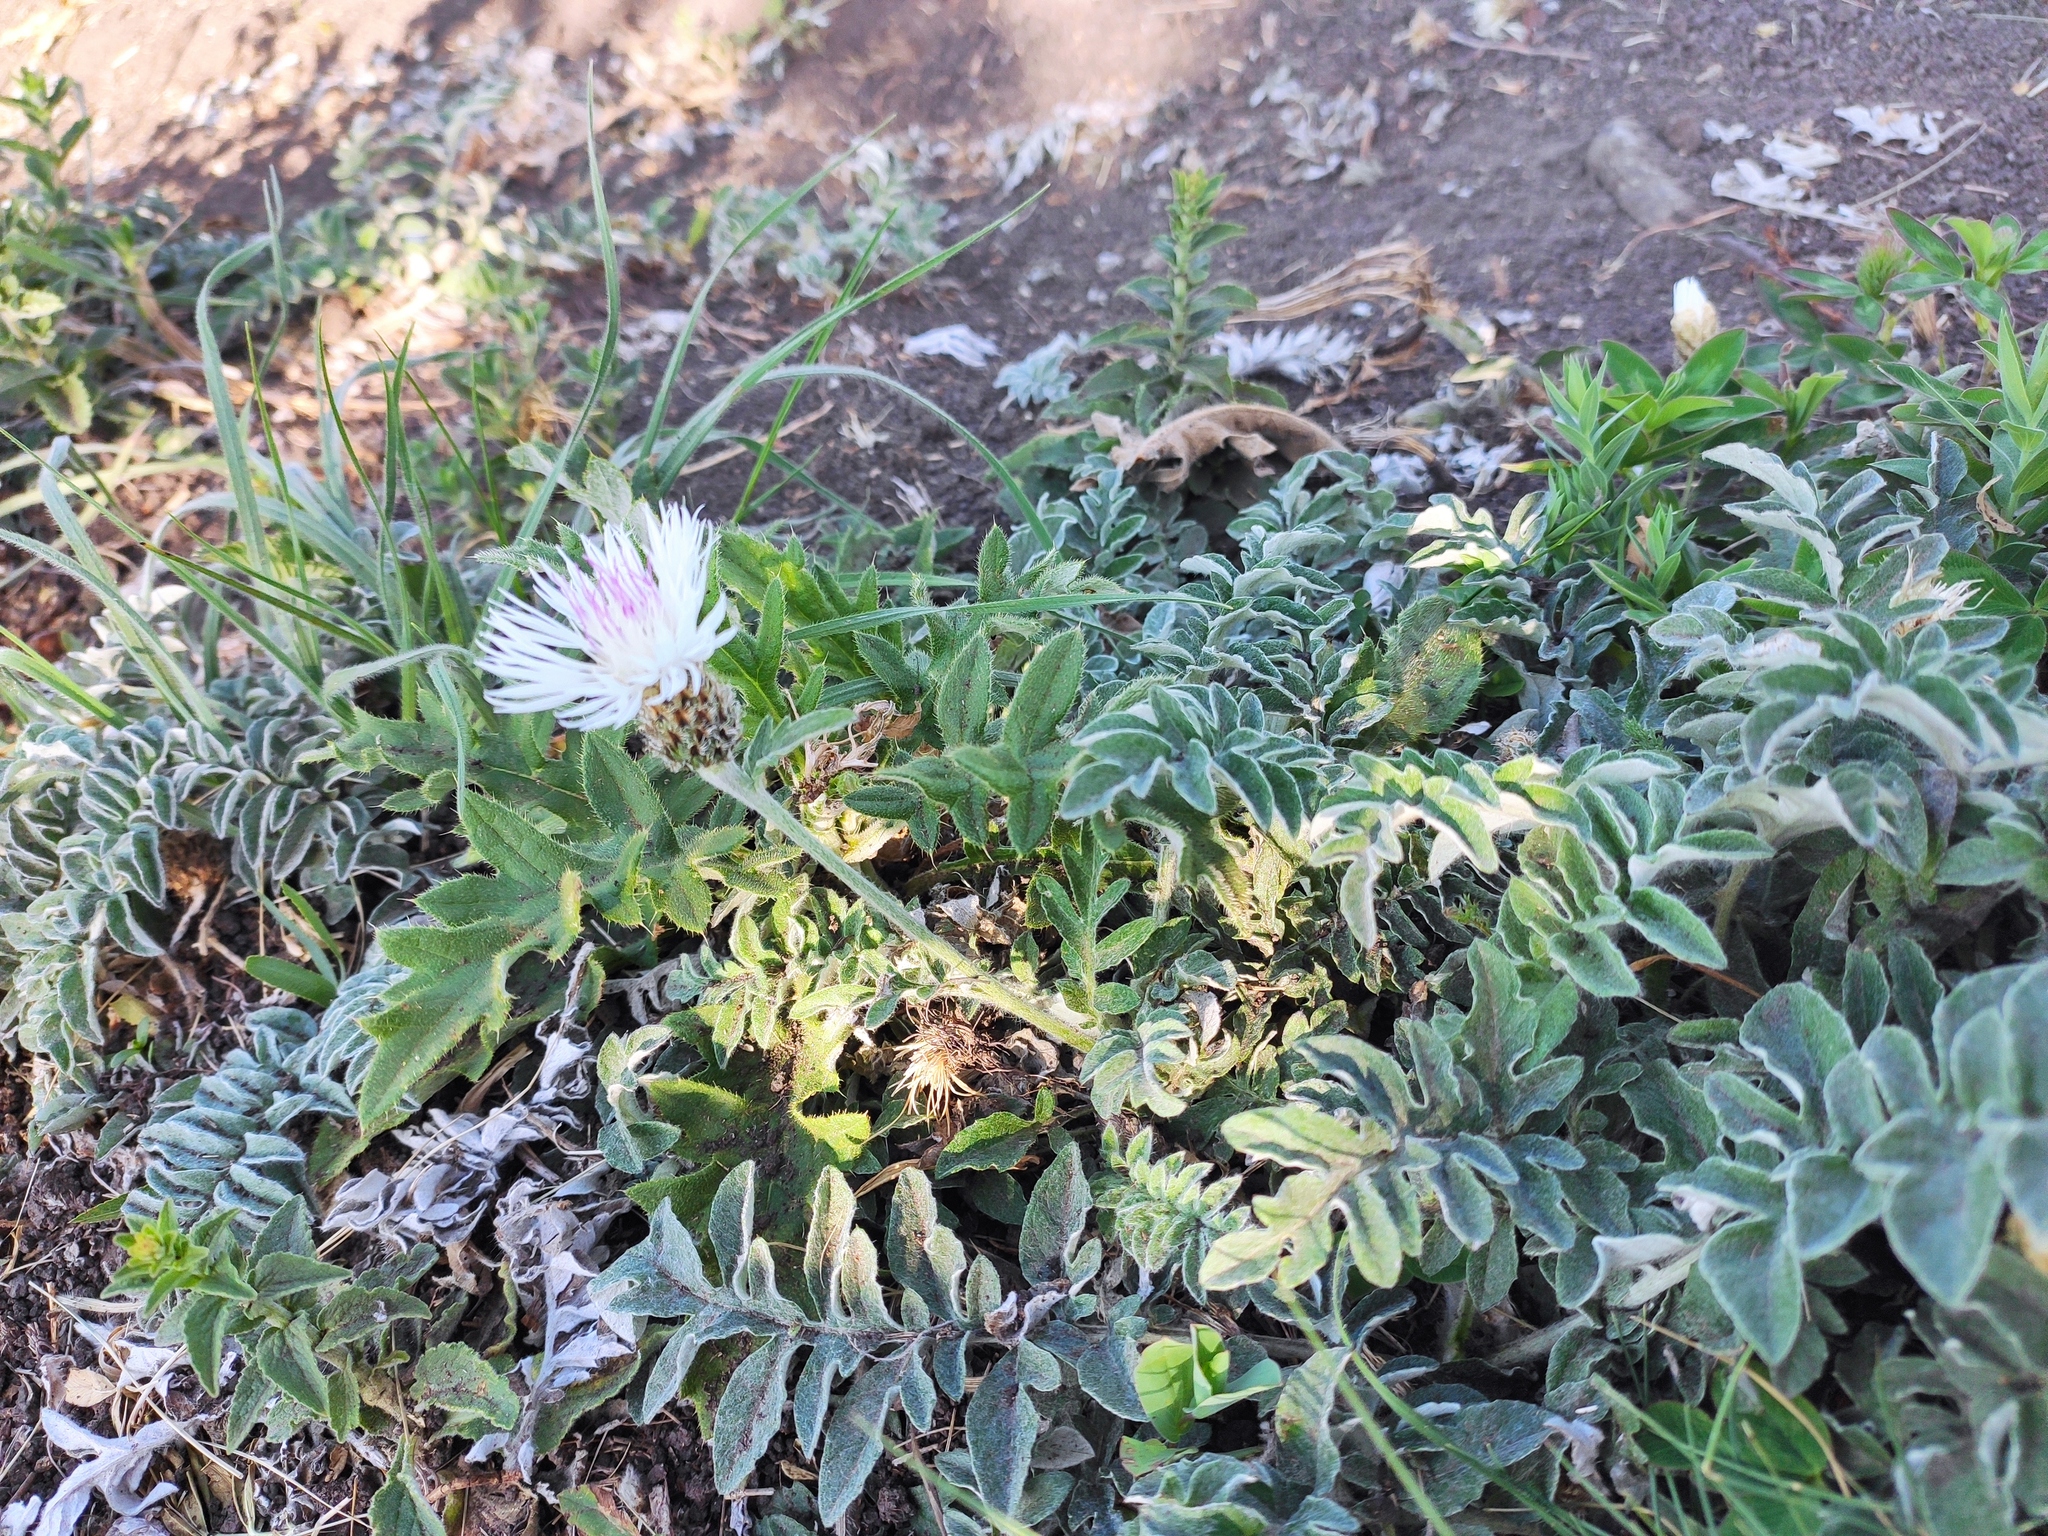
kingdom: Plantae
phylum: Tracheophyta
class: Magnoliopsida
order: Asterales
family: Asteraceae
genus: Psephellus
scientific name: Psephellus declinatus
